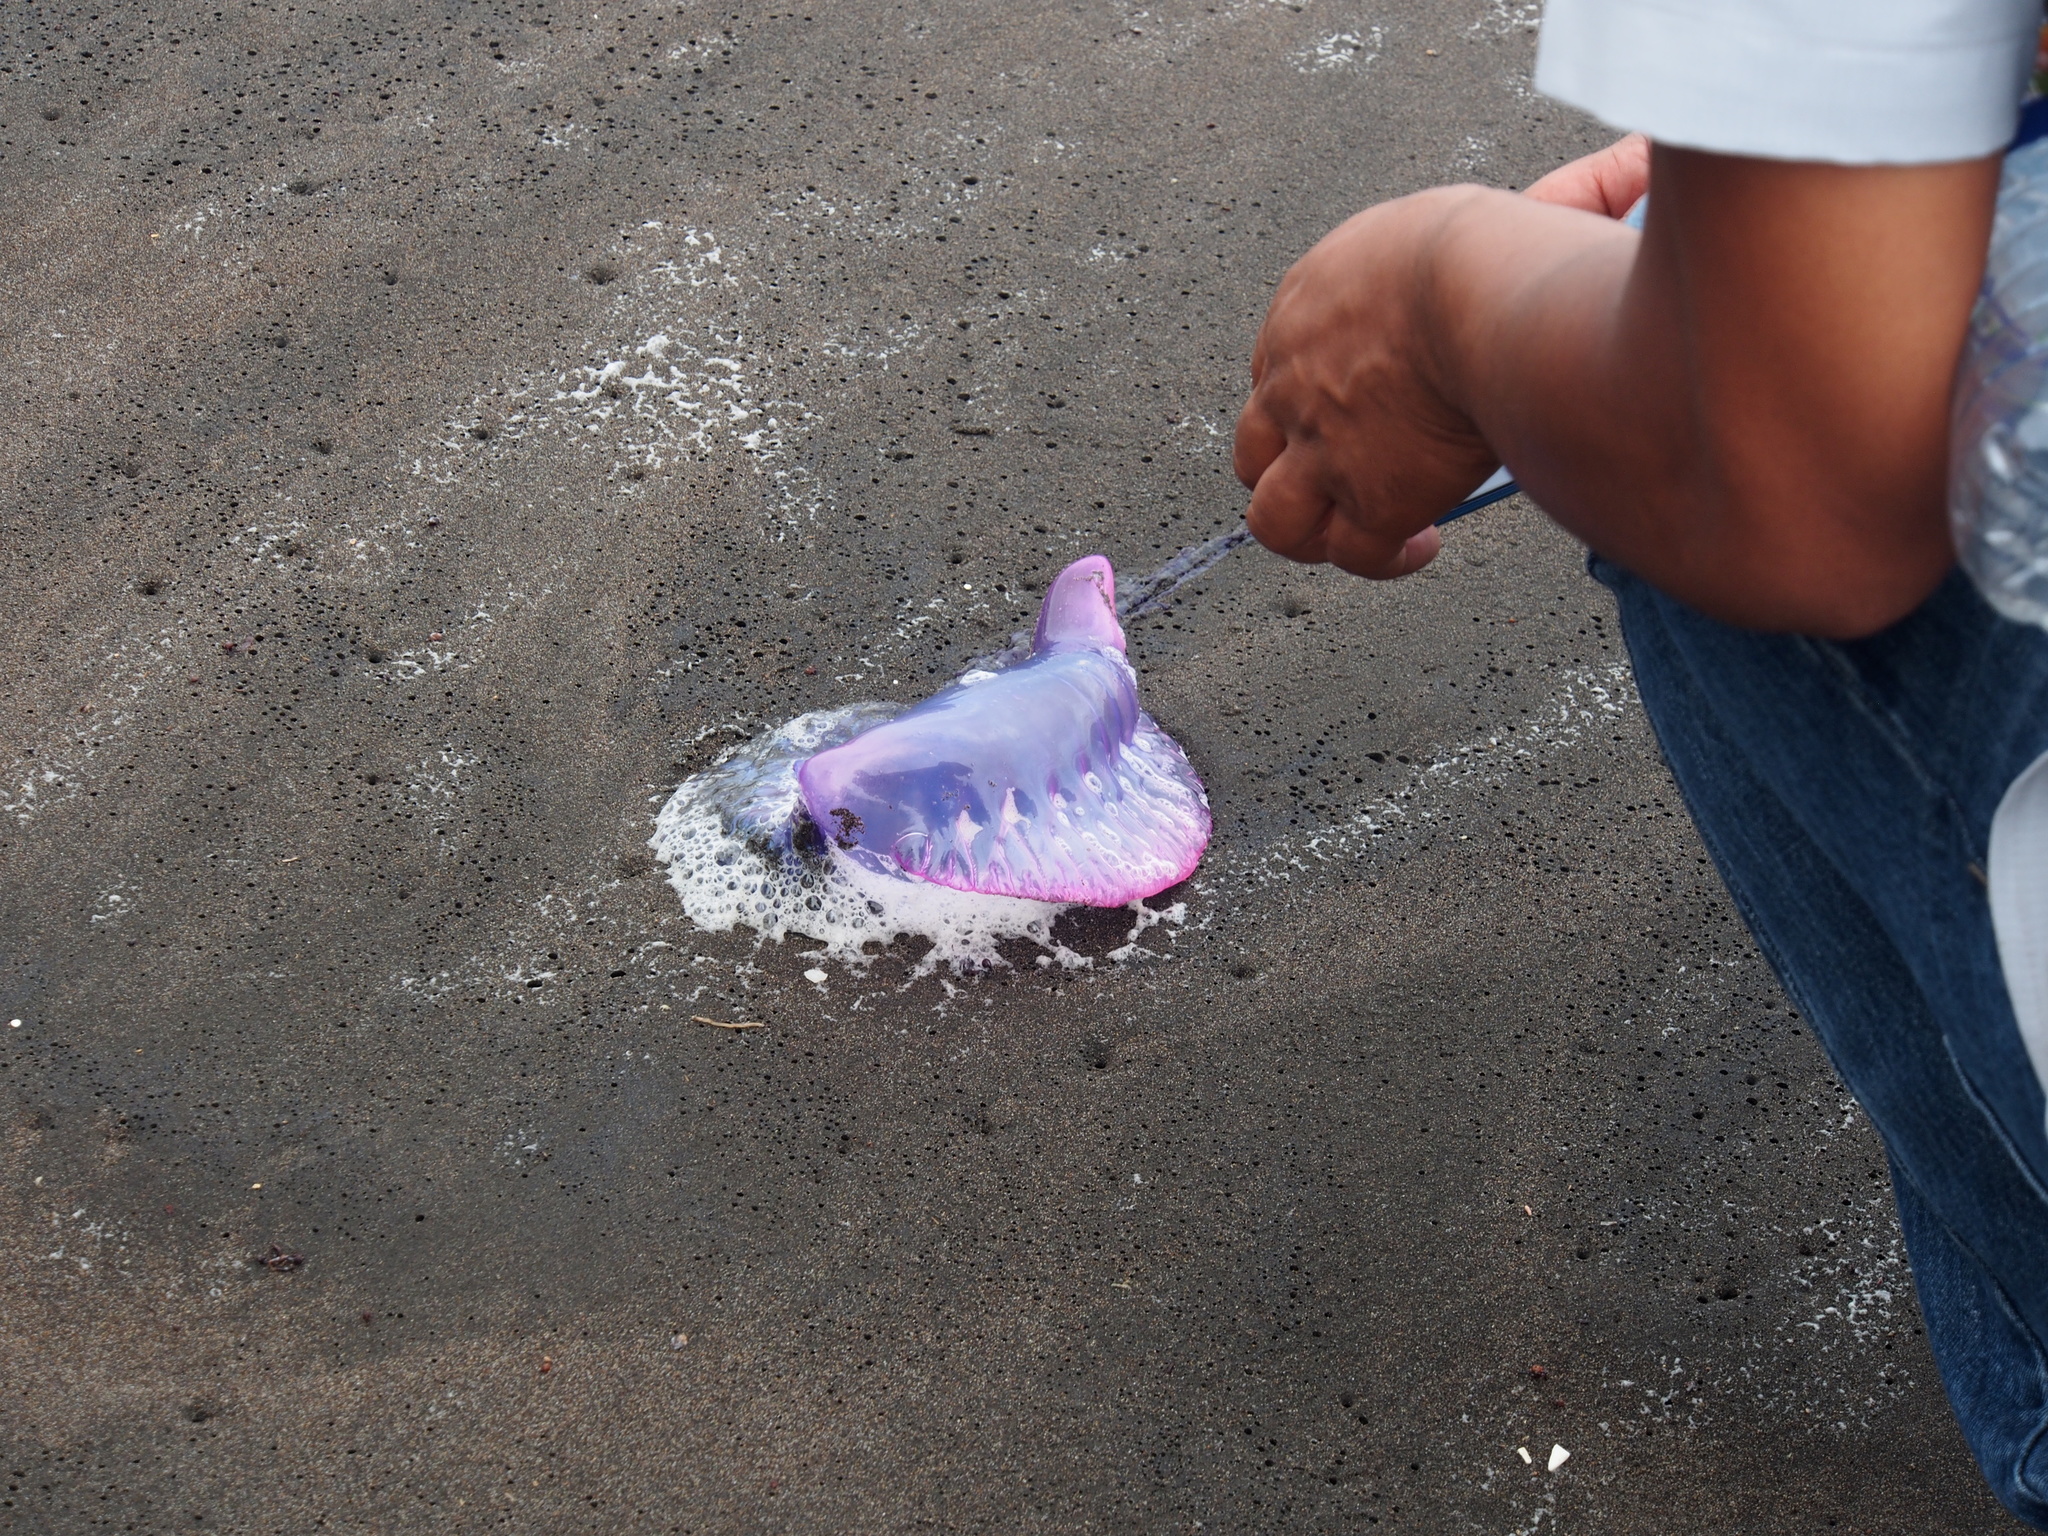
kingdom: Animalia
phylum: Cnidaria
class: Hydrozoa
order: Siphonophorae
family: Physaliidae
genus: Physalia
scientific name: Physalia physalis
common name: Portuguese man-of-war
